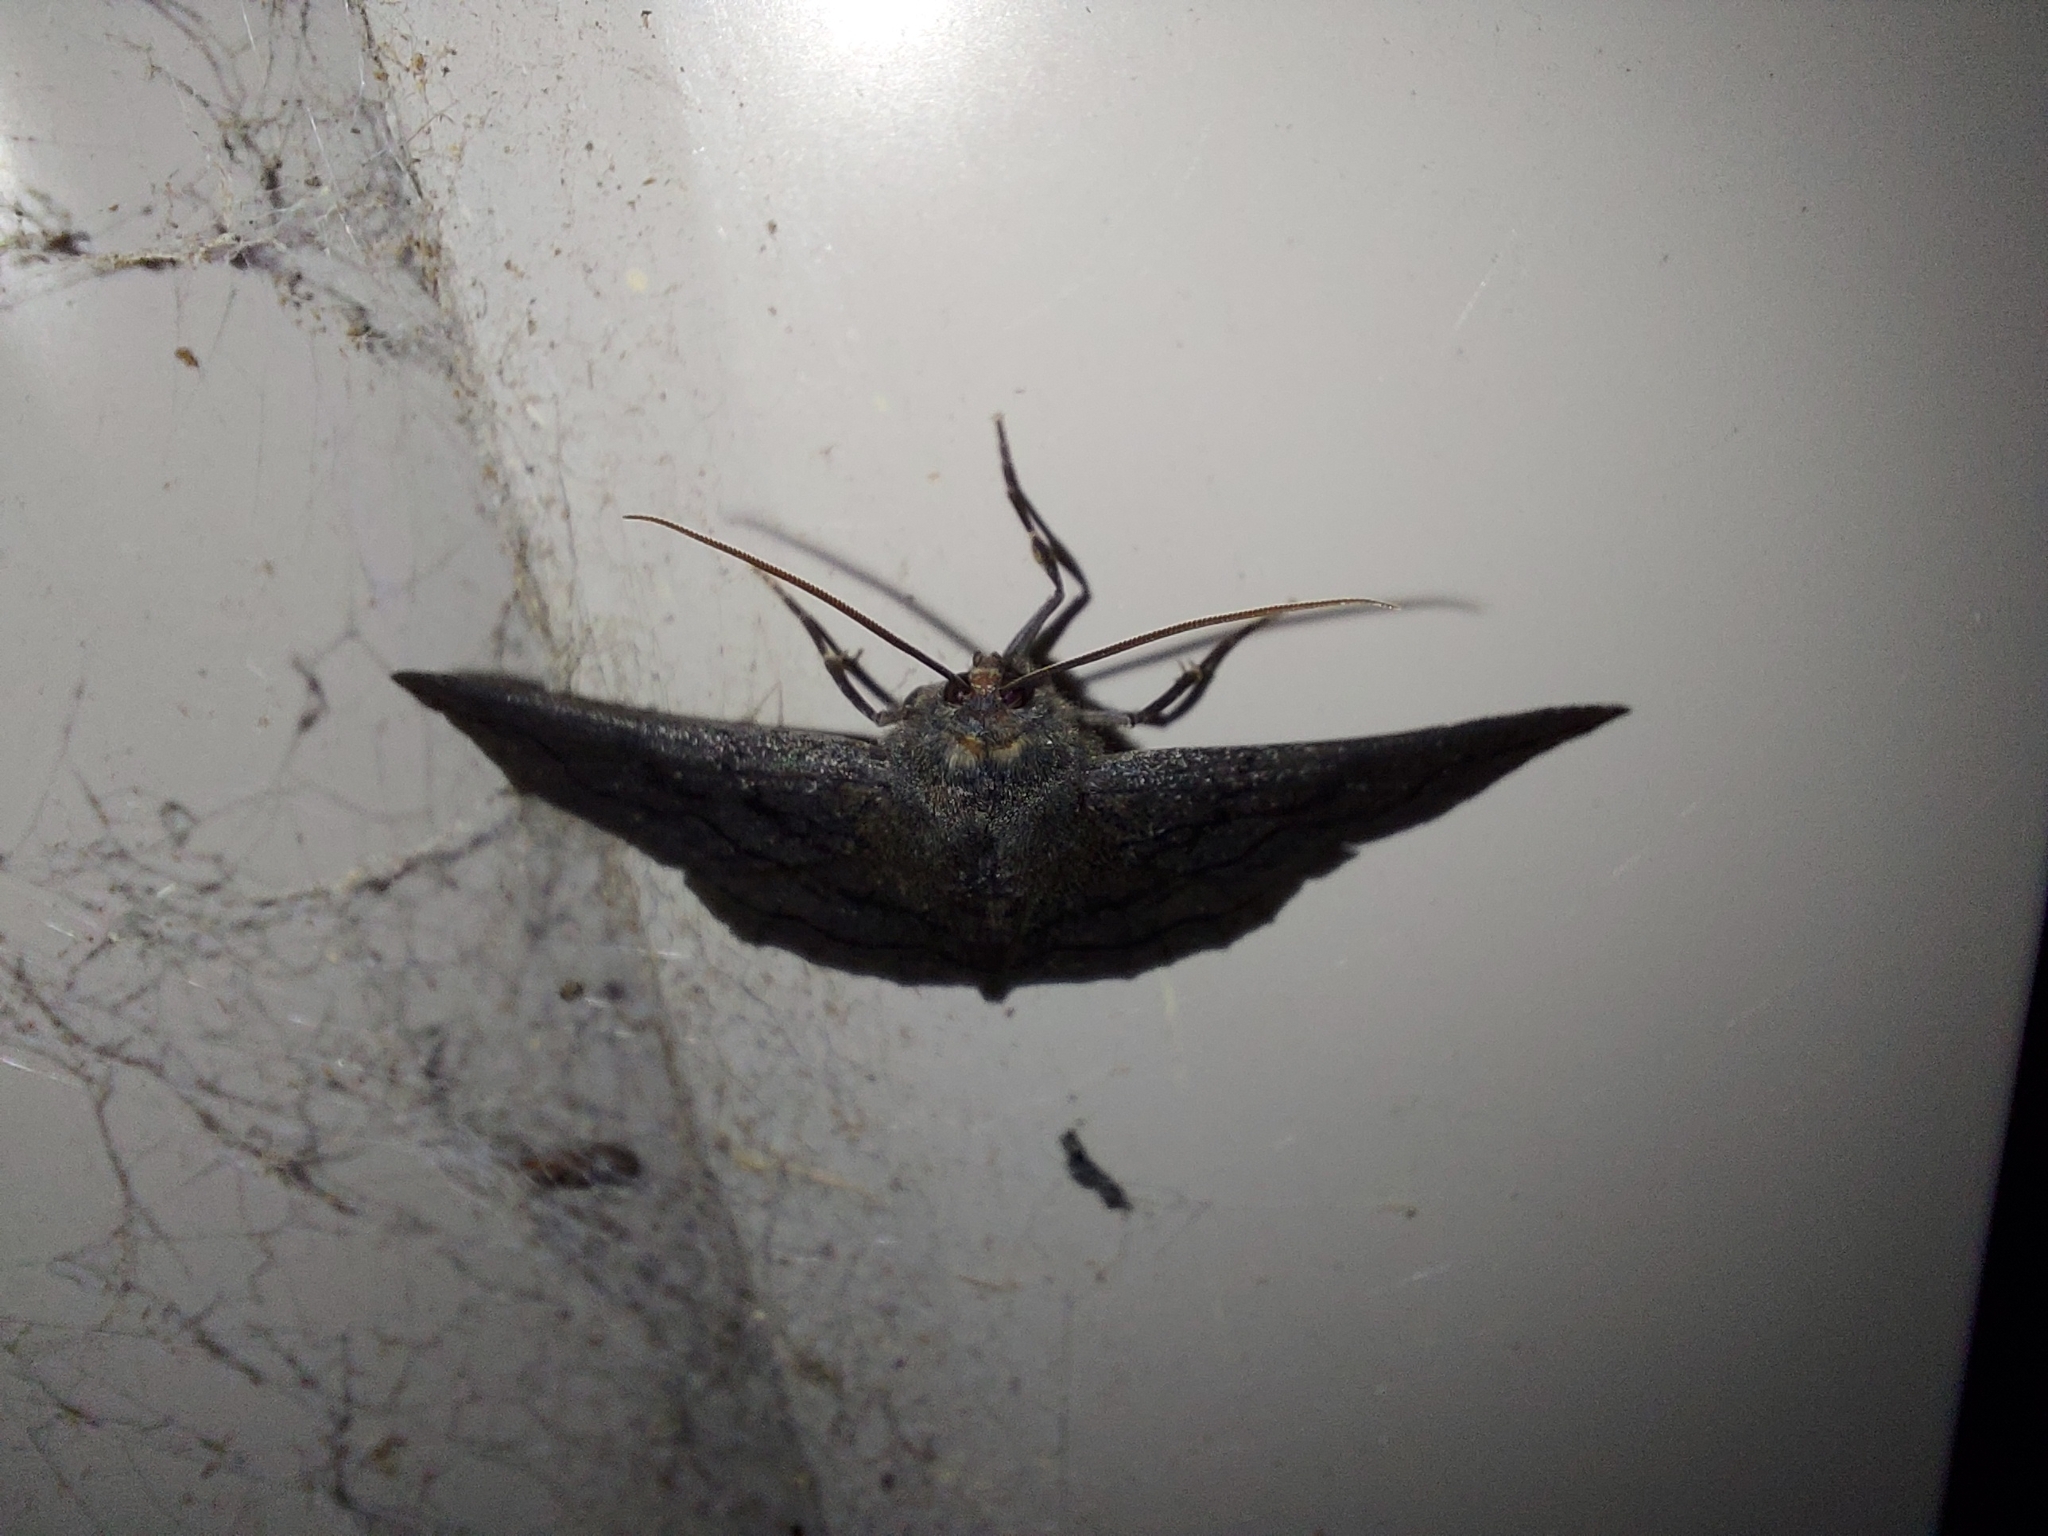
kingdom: Animalia
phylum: Arthropoda
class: Insecta
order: Lepidoptera
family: Geometridae
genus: Melanodes
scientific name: Melanodes anthracitaria
